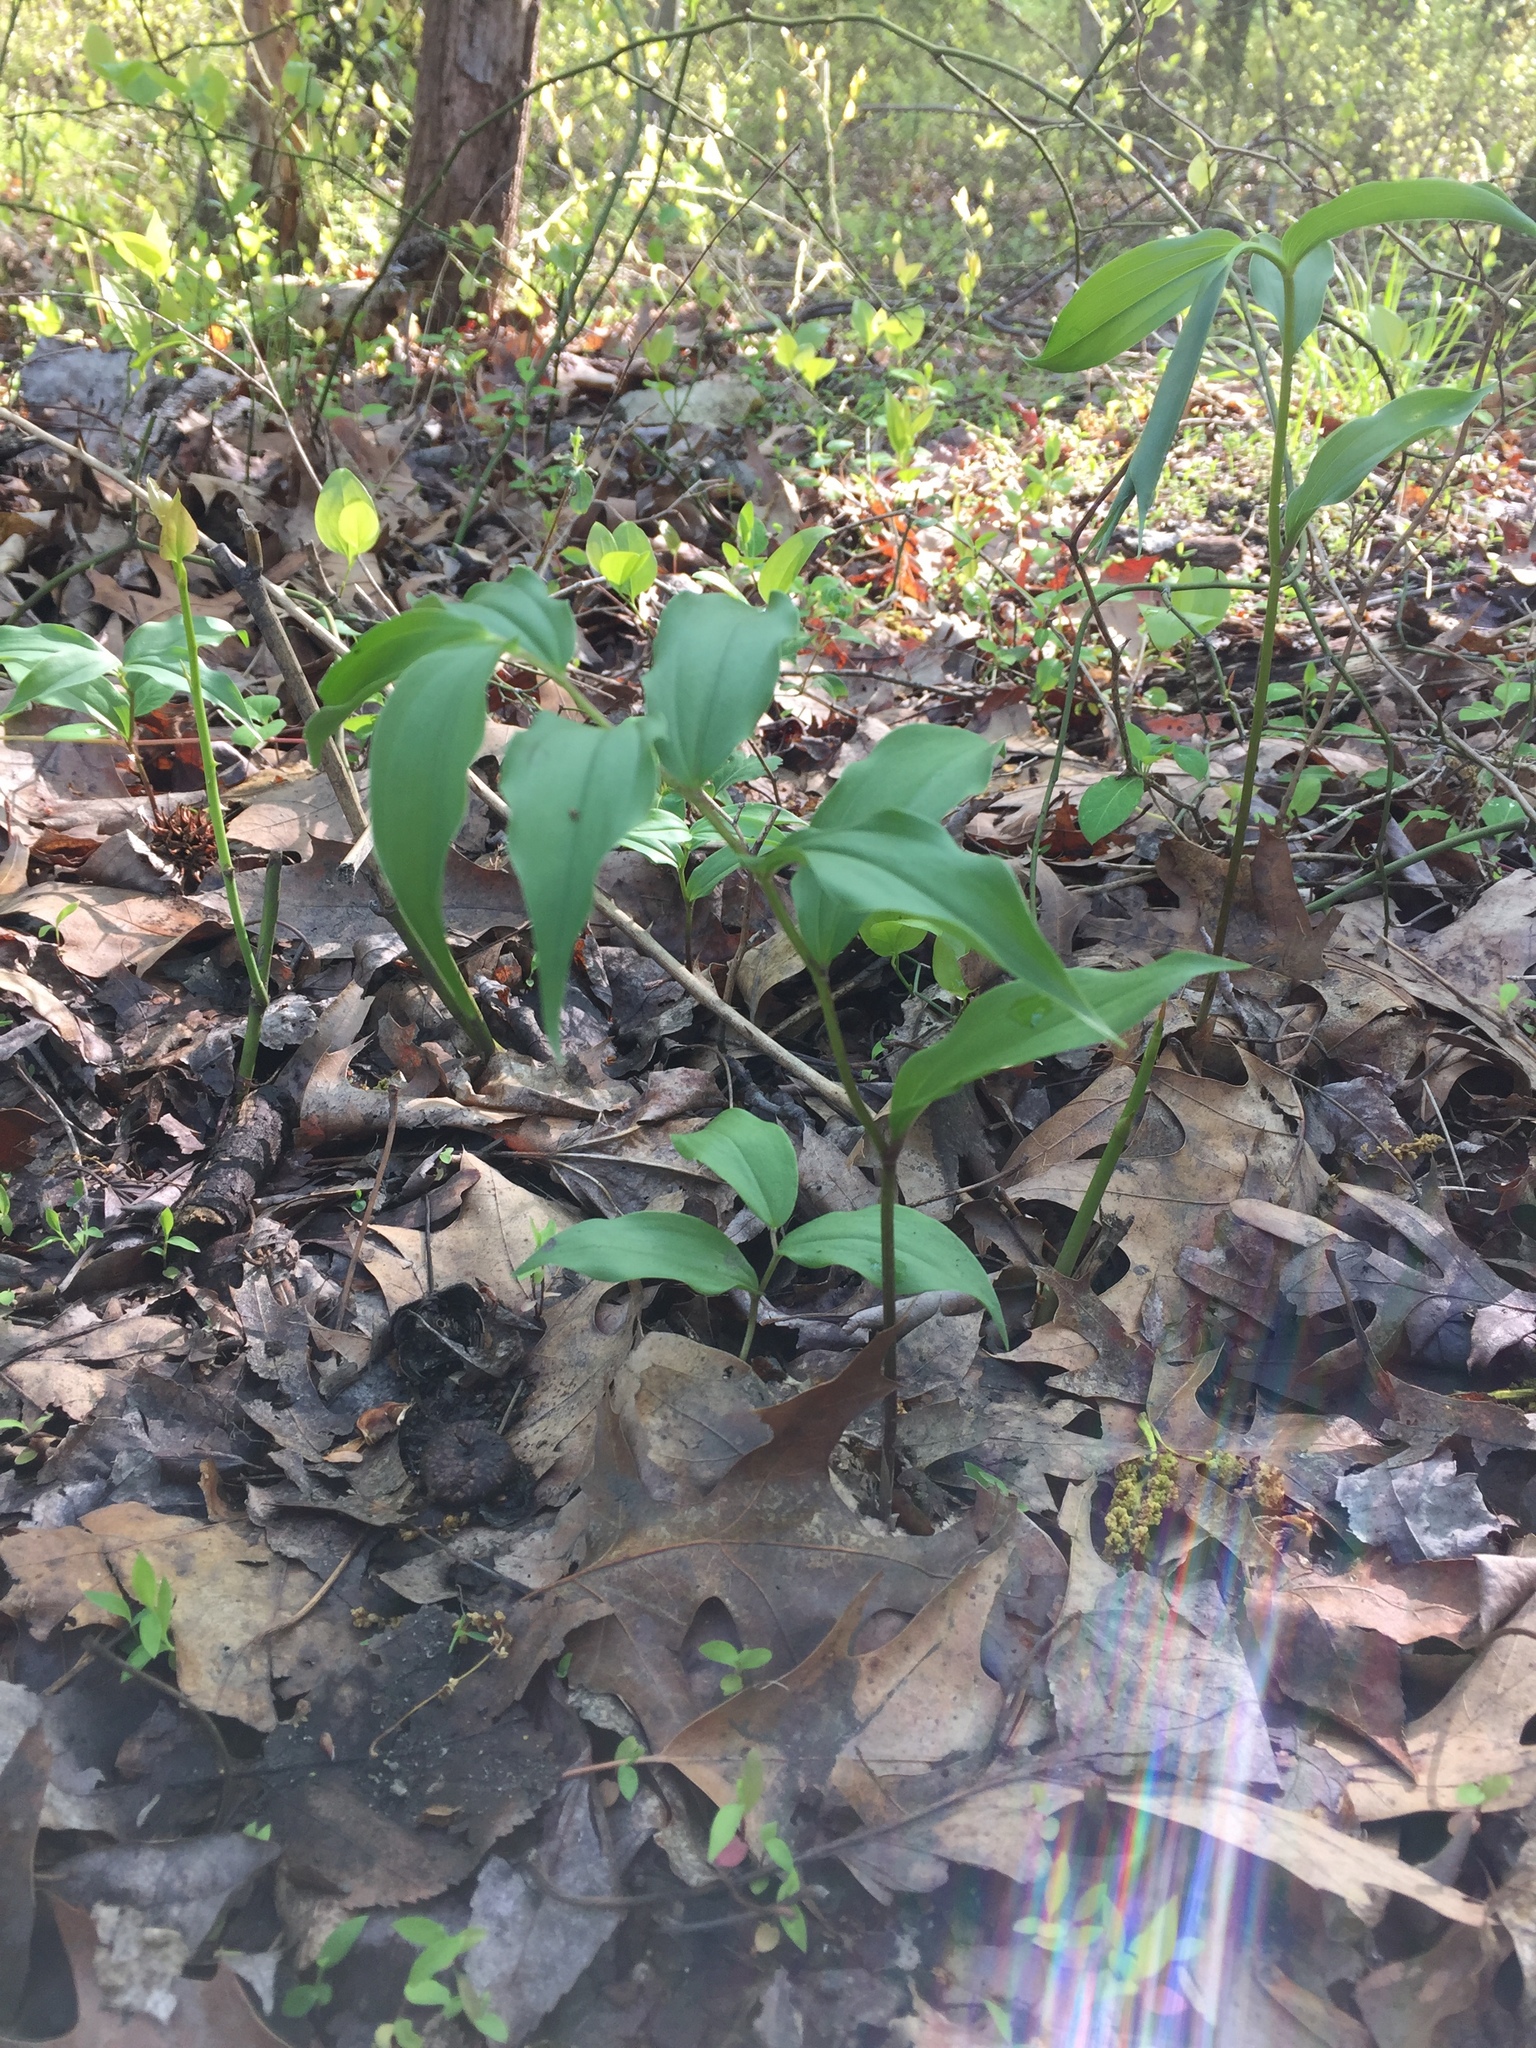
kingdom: Plantae
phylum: Tracheophyta
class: Liliopsida
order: Asparagales
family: Asparagaceae
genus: Maianthemum
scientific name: Maianthemum racemosum
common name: False spikenard
